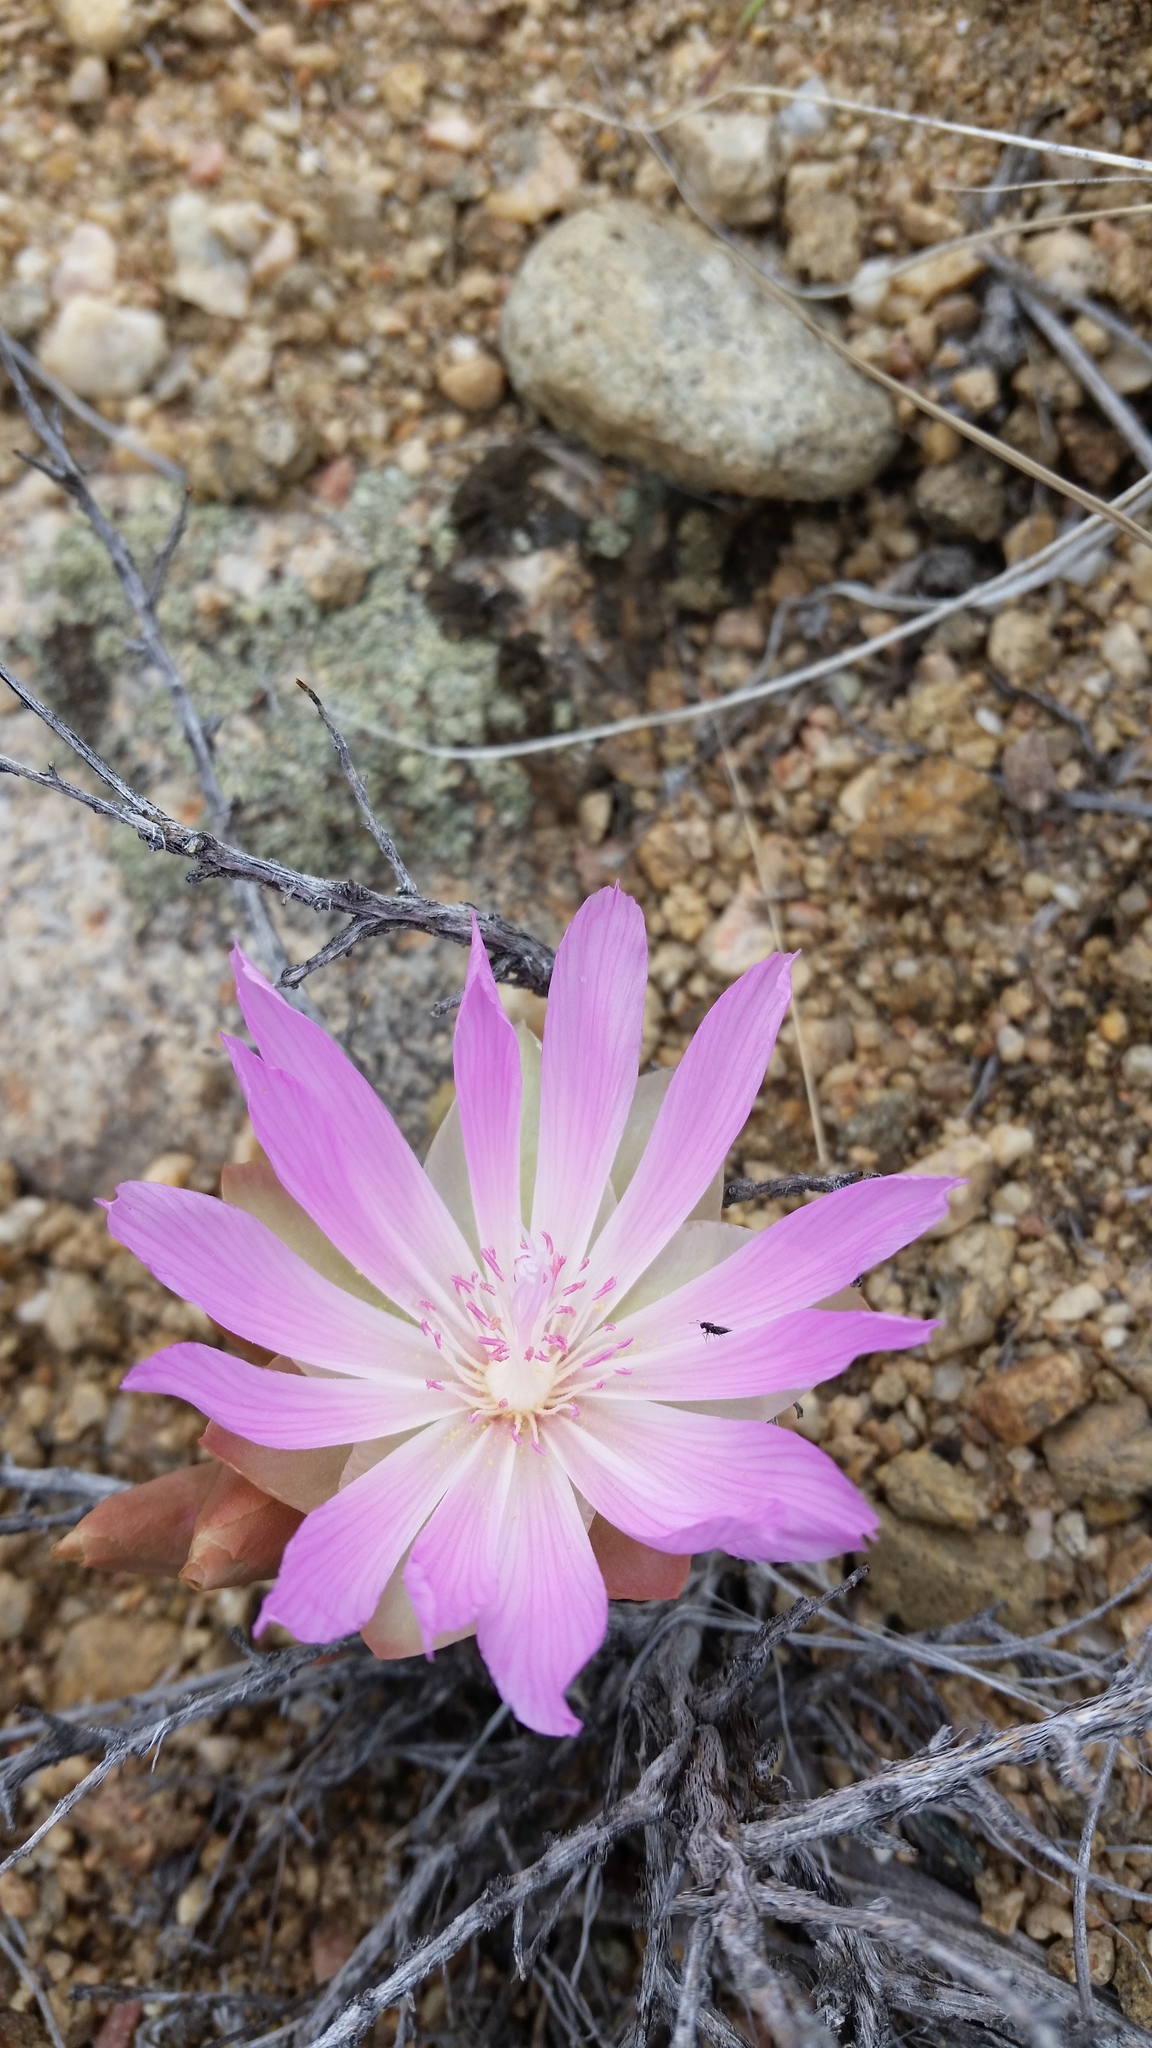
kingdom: Plantae
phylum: Tracheophyta
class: Magnoliopsida
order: Caryophyllales
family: Montiaceae
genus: Lewisia
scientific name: Lewisia rediviva
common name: Bitter-root
